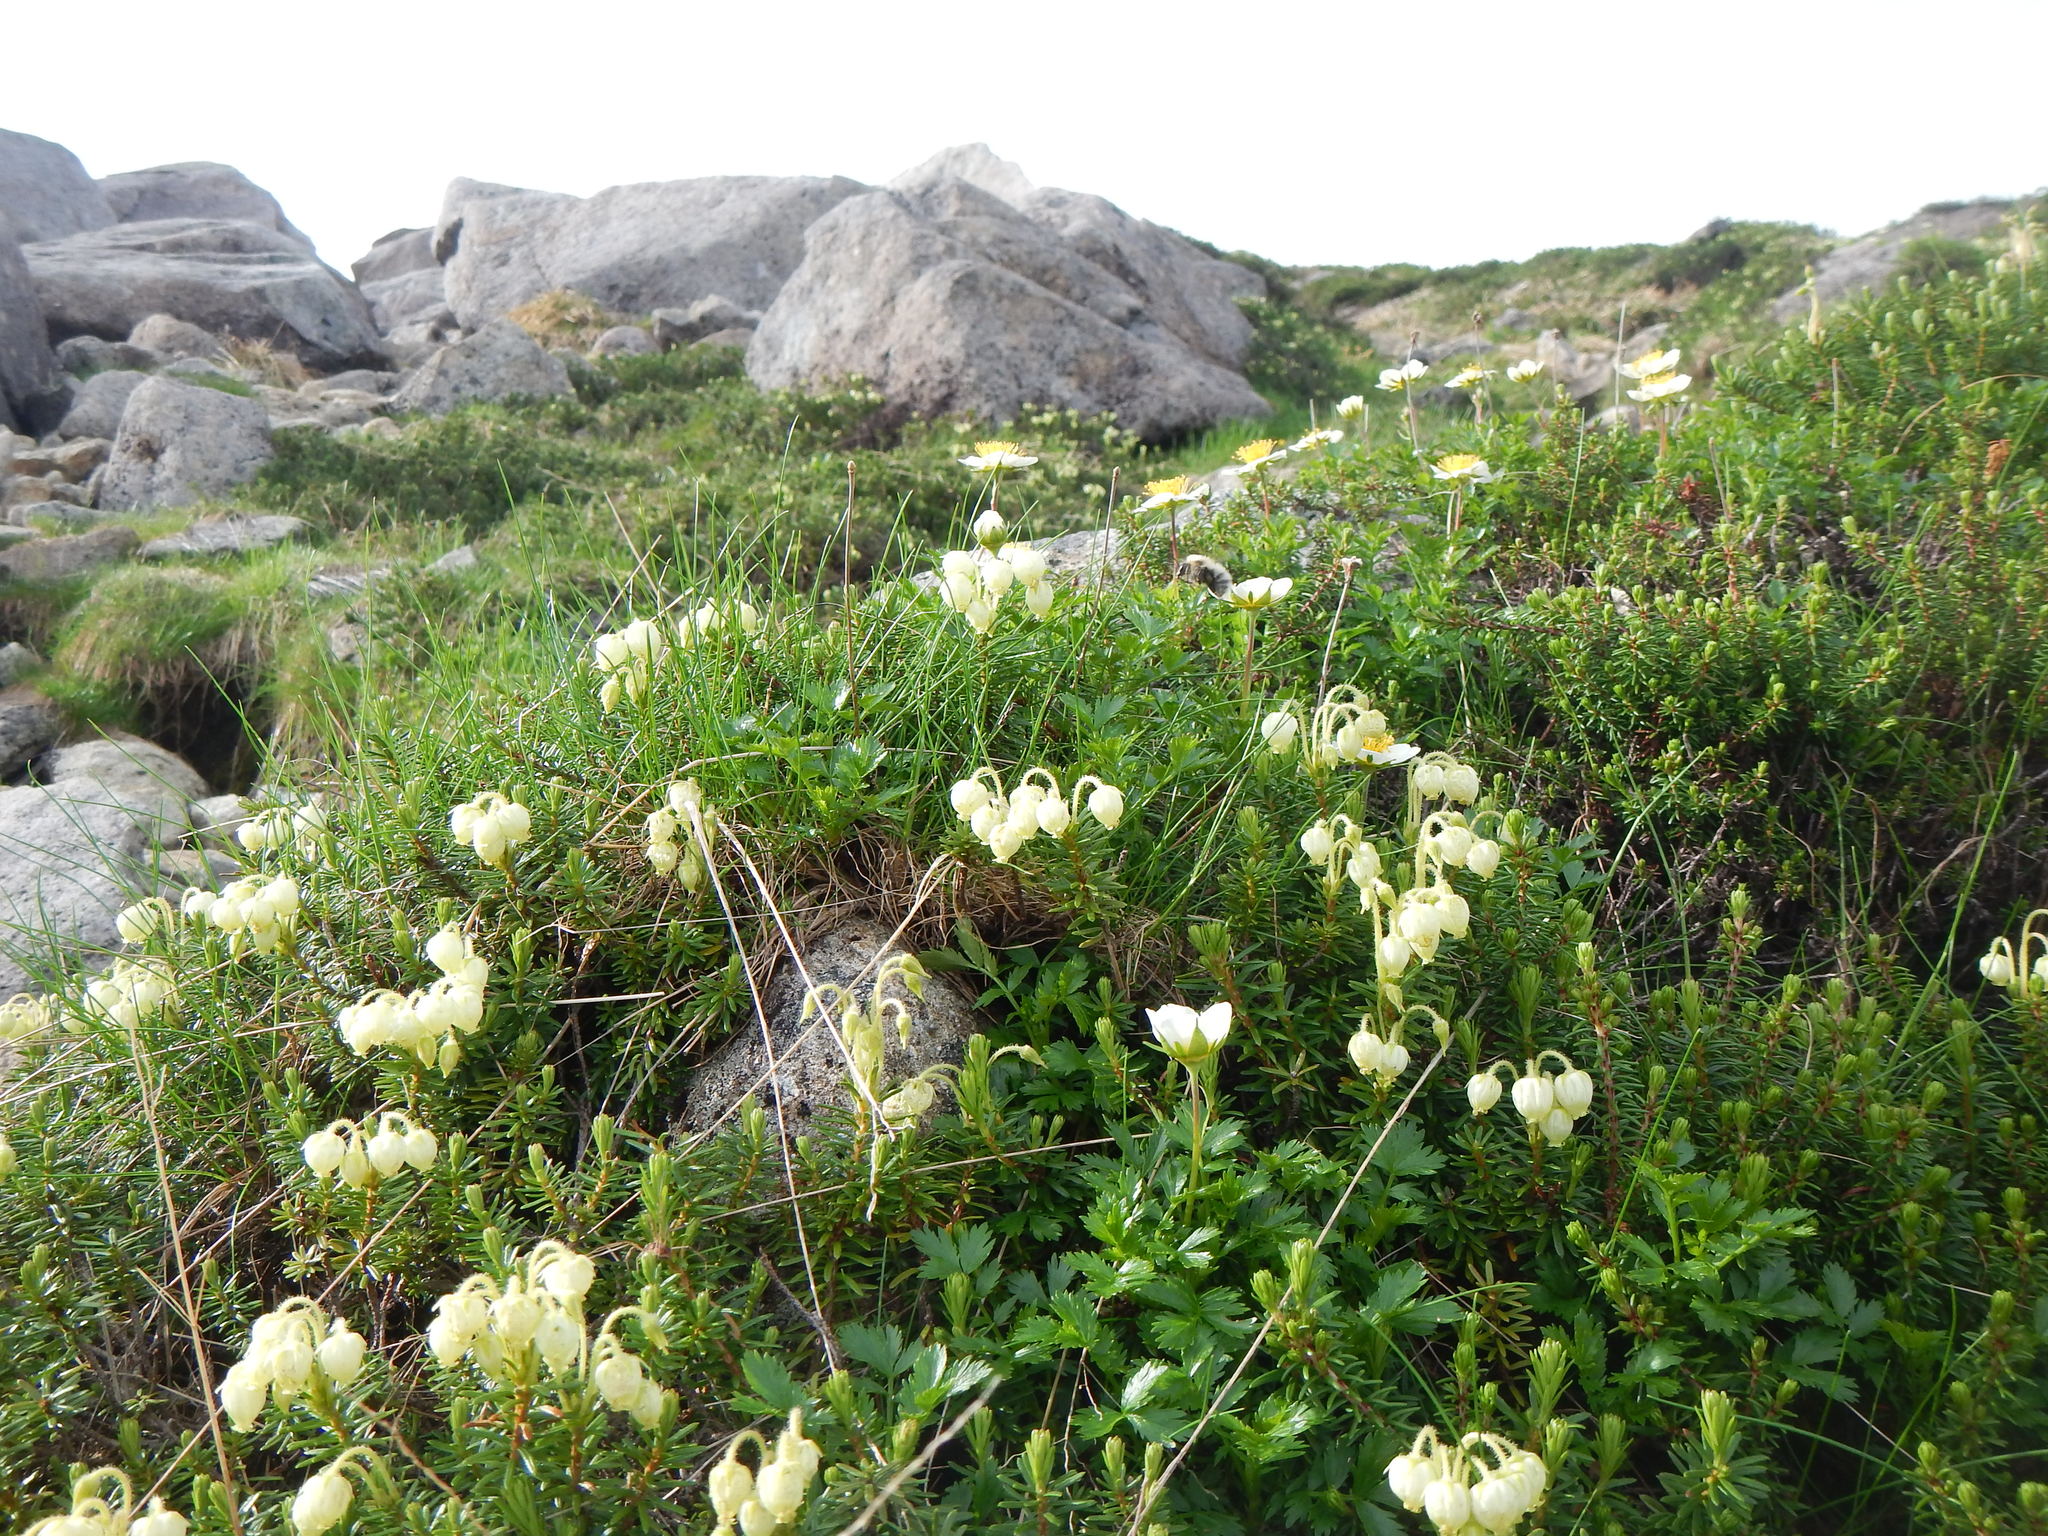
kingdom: Plantae
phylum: Tracheophyta
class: Magnoliopsida
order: Ericales
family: Ericaceae
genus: Phyllodoce
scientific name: Phyllodoce aleutica
